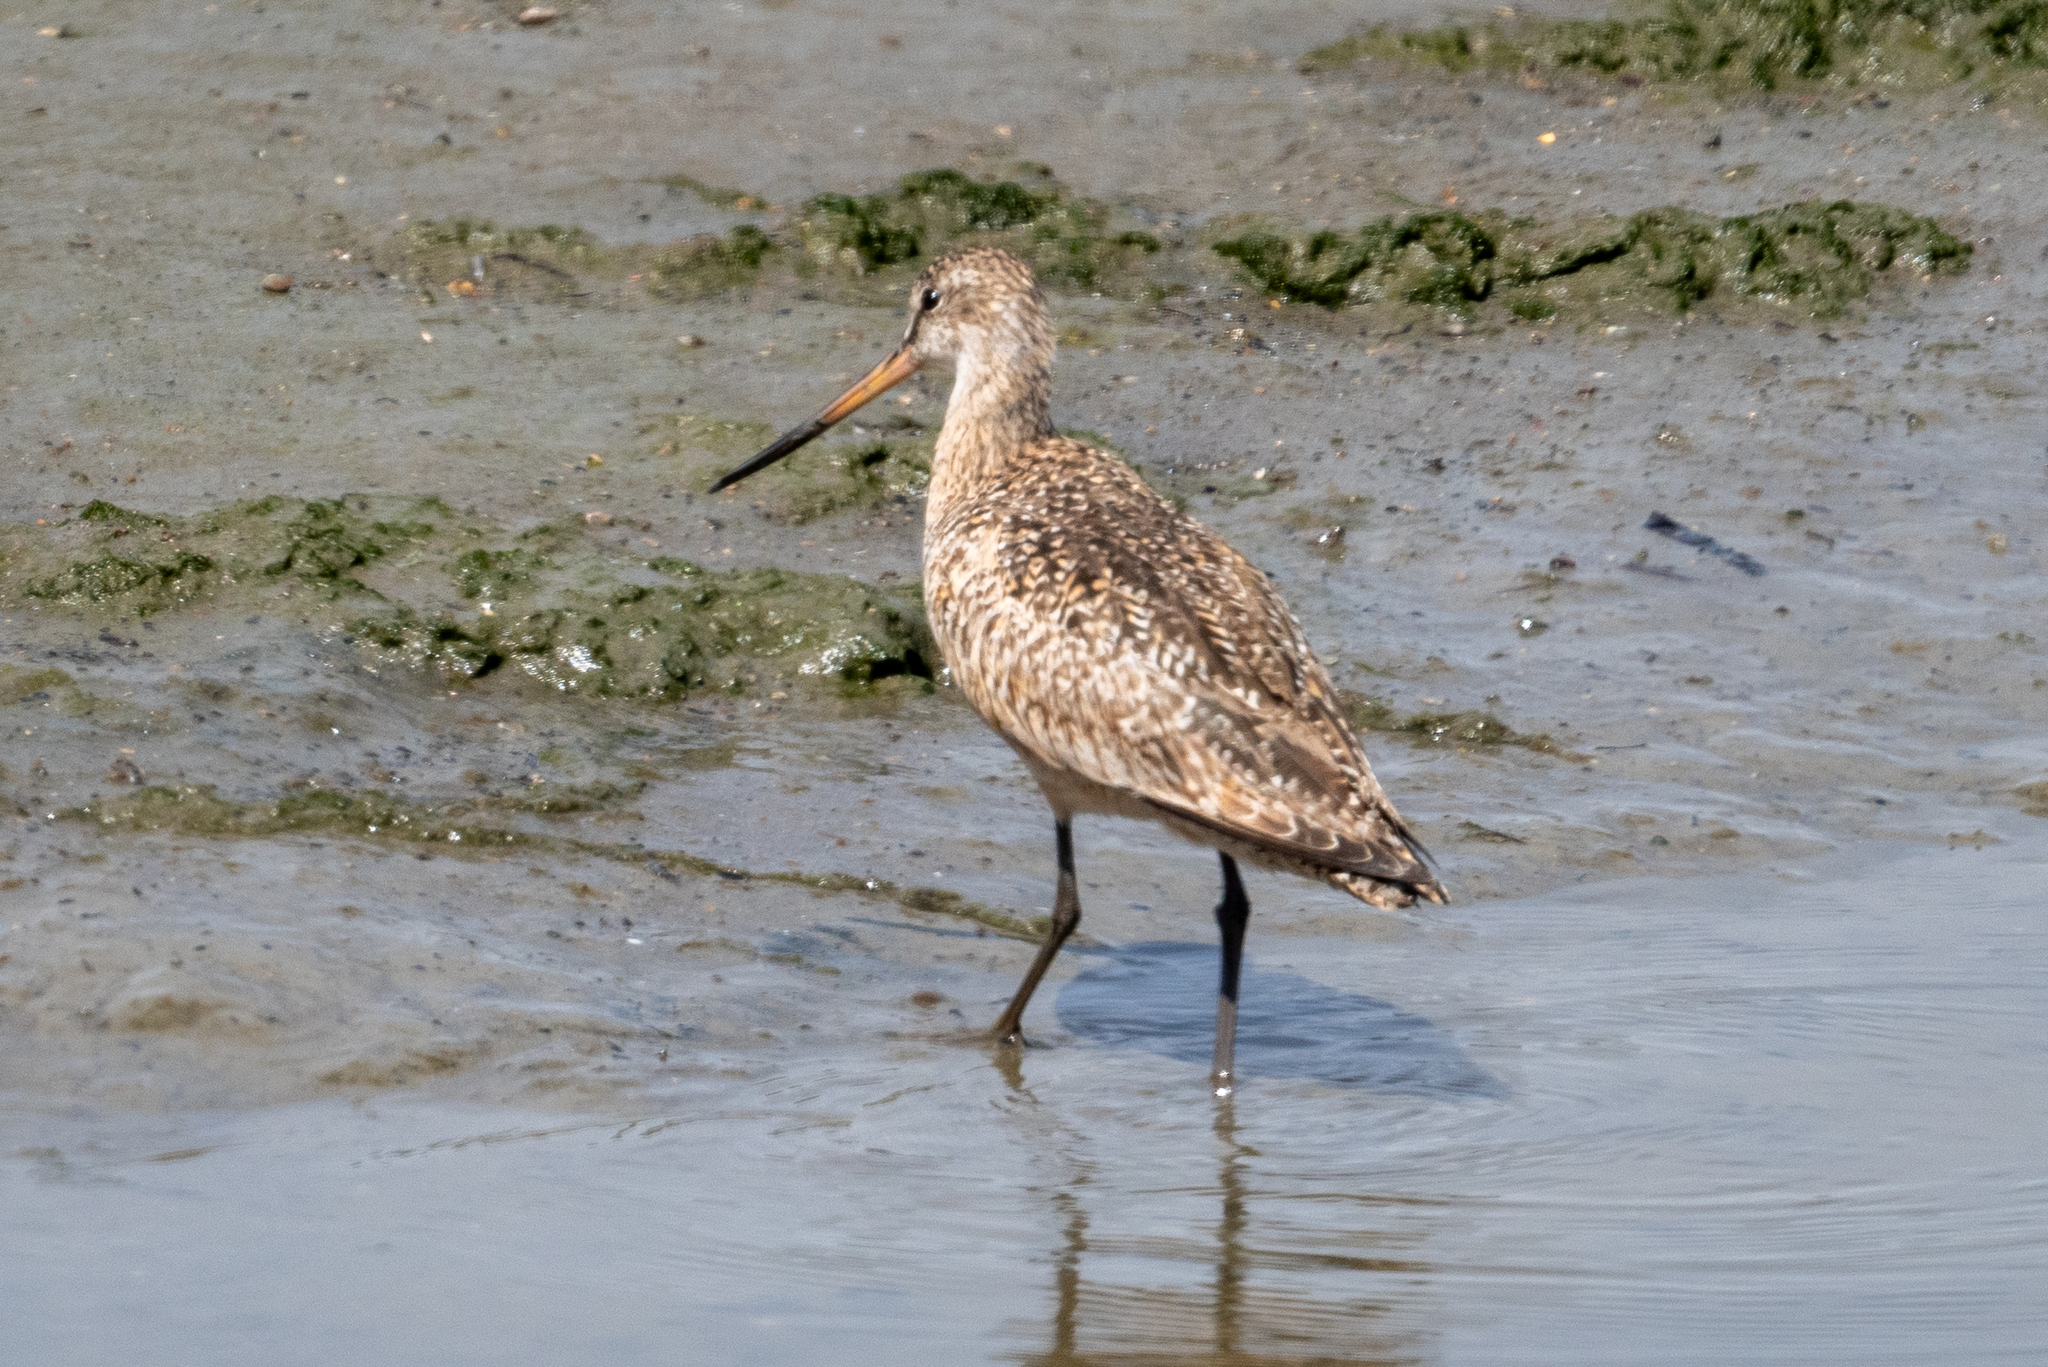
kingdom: Animalia
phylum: Chordata
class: Aves
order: Charadriiformes
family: Scolopacidae
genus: Limosa
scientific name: Limosa fedoa
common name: Marbled godwit
